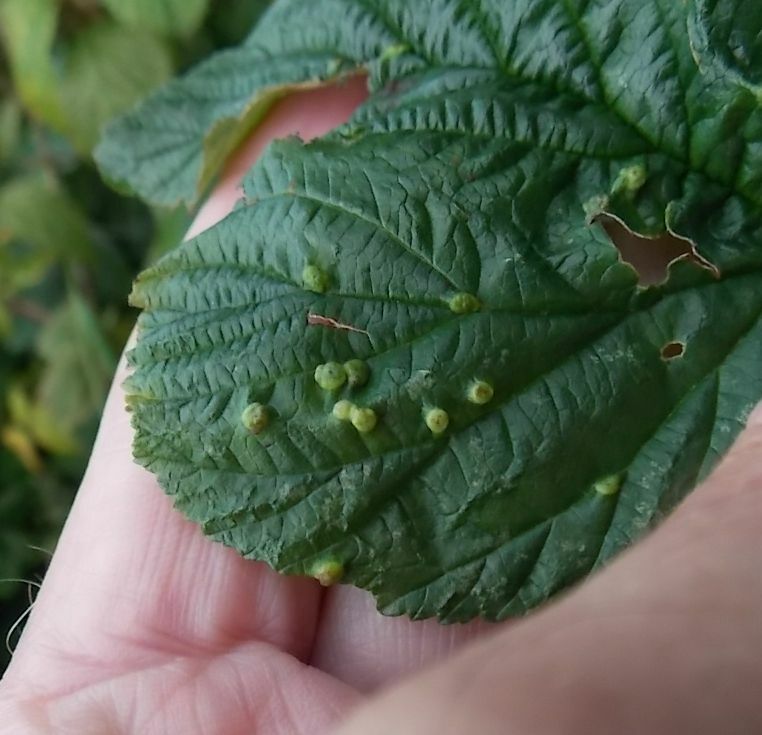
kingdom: Animalia
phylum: Arthropoda
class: Insecta
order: Diptera
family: Cecidomyiidae
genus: Dasineura
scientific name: Dasineura ulmaria
